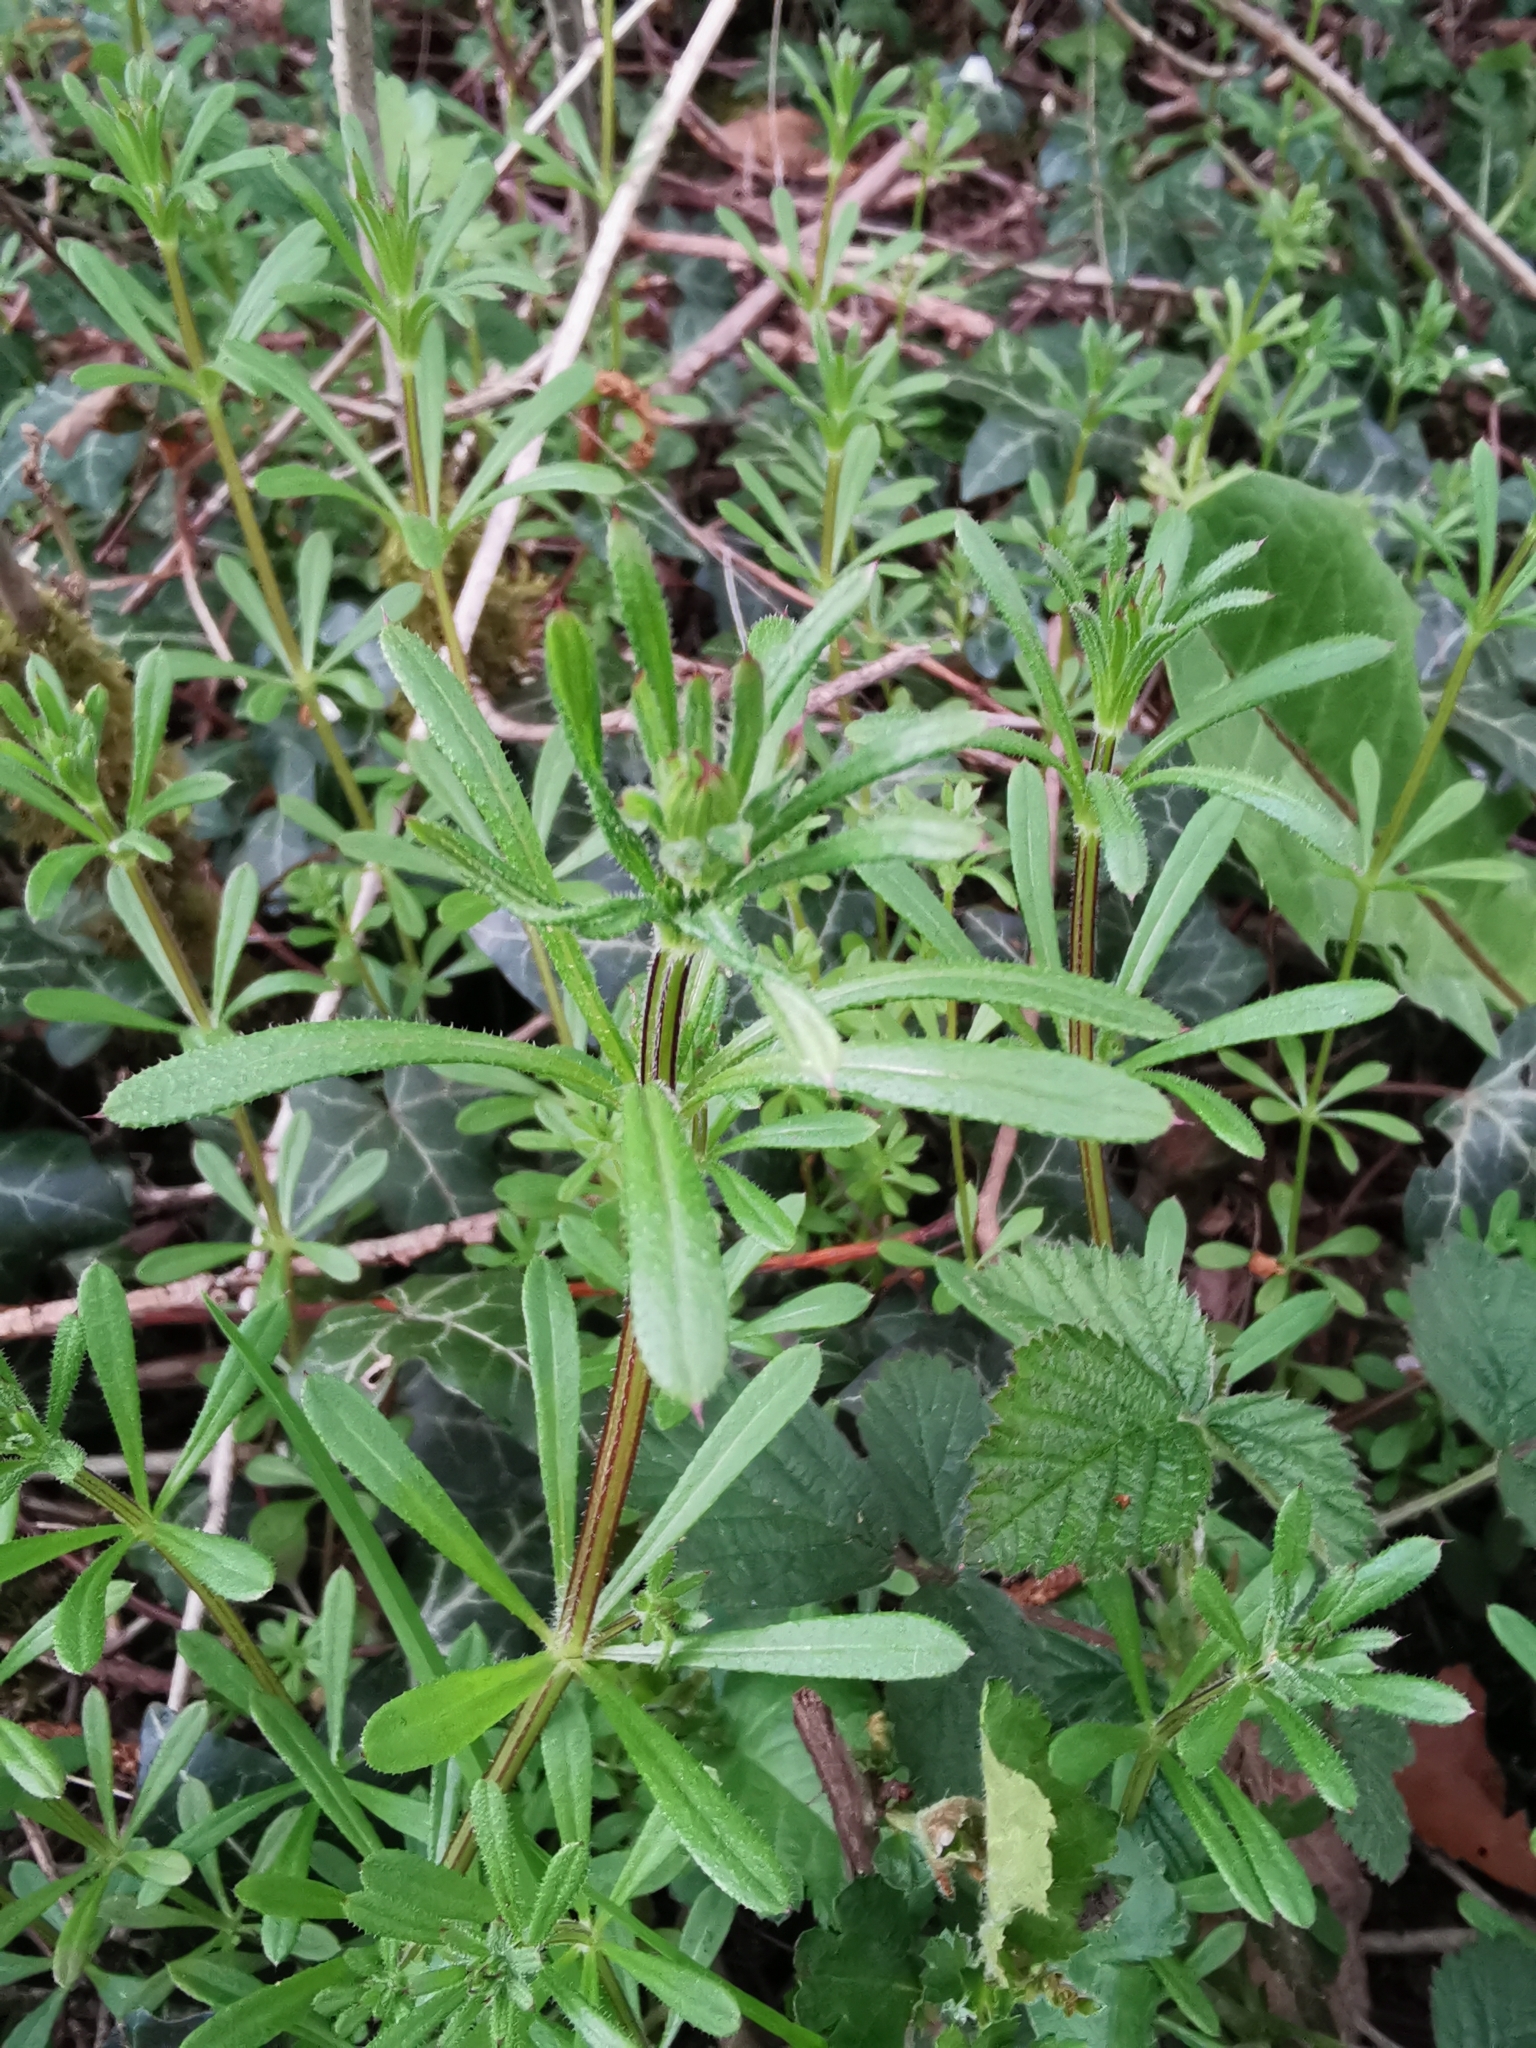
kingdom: Plantae
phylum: Tracheophyta
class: Magnoliopsida
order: Gentianales
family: Rubiaceae
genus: Galium
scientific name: Galium aparine
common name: Cleavers
